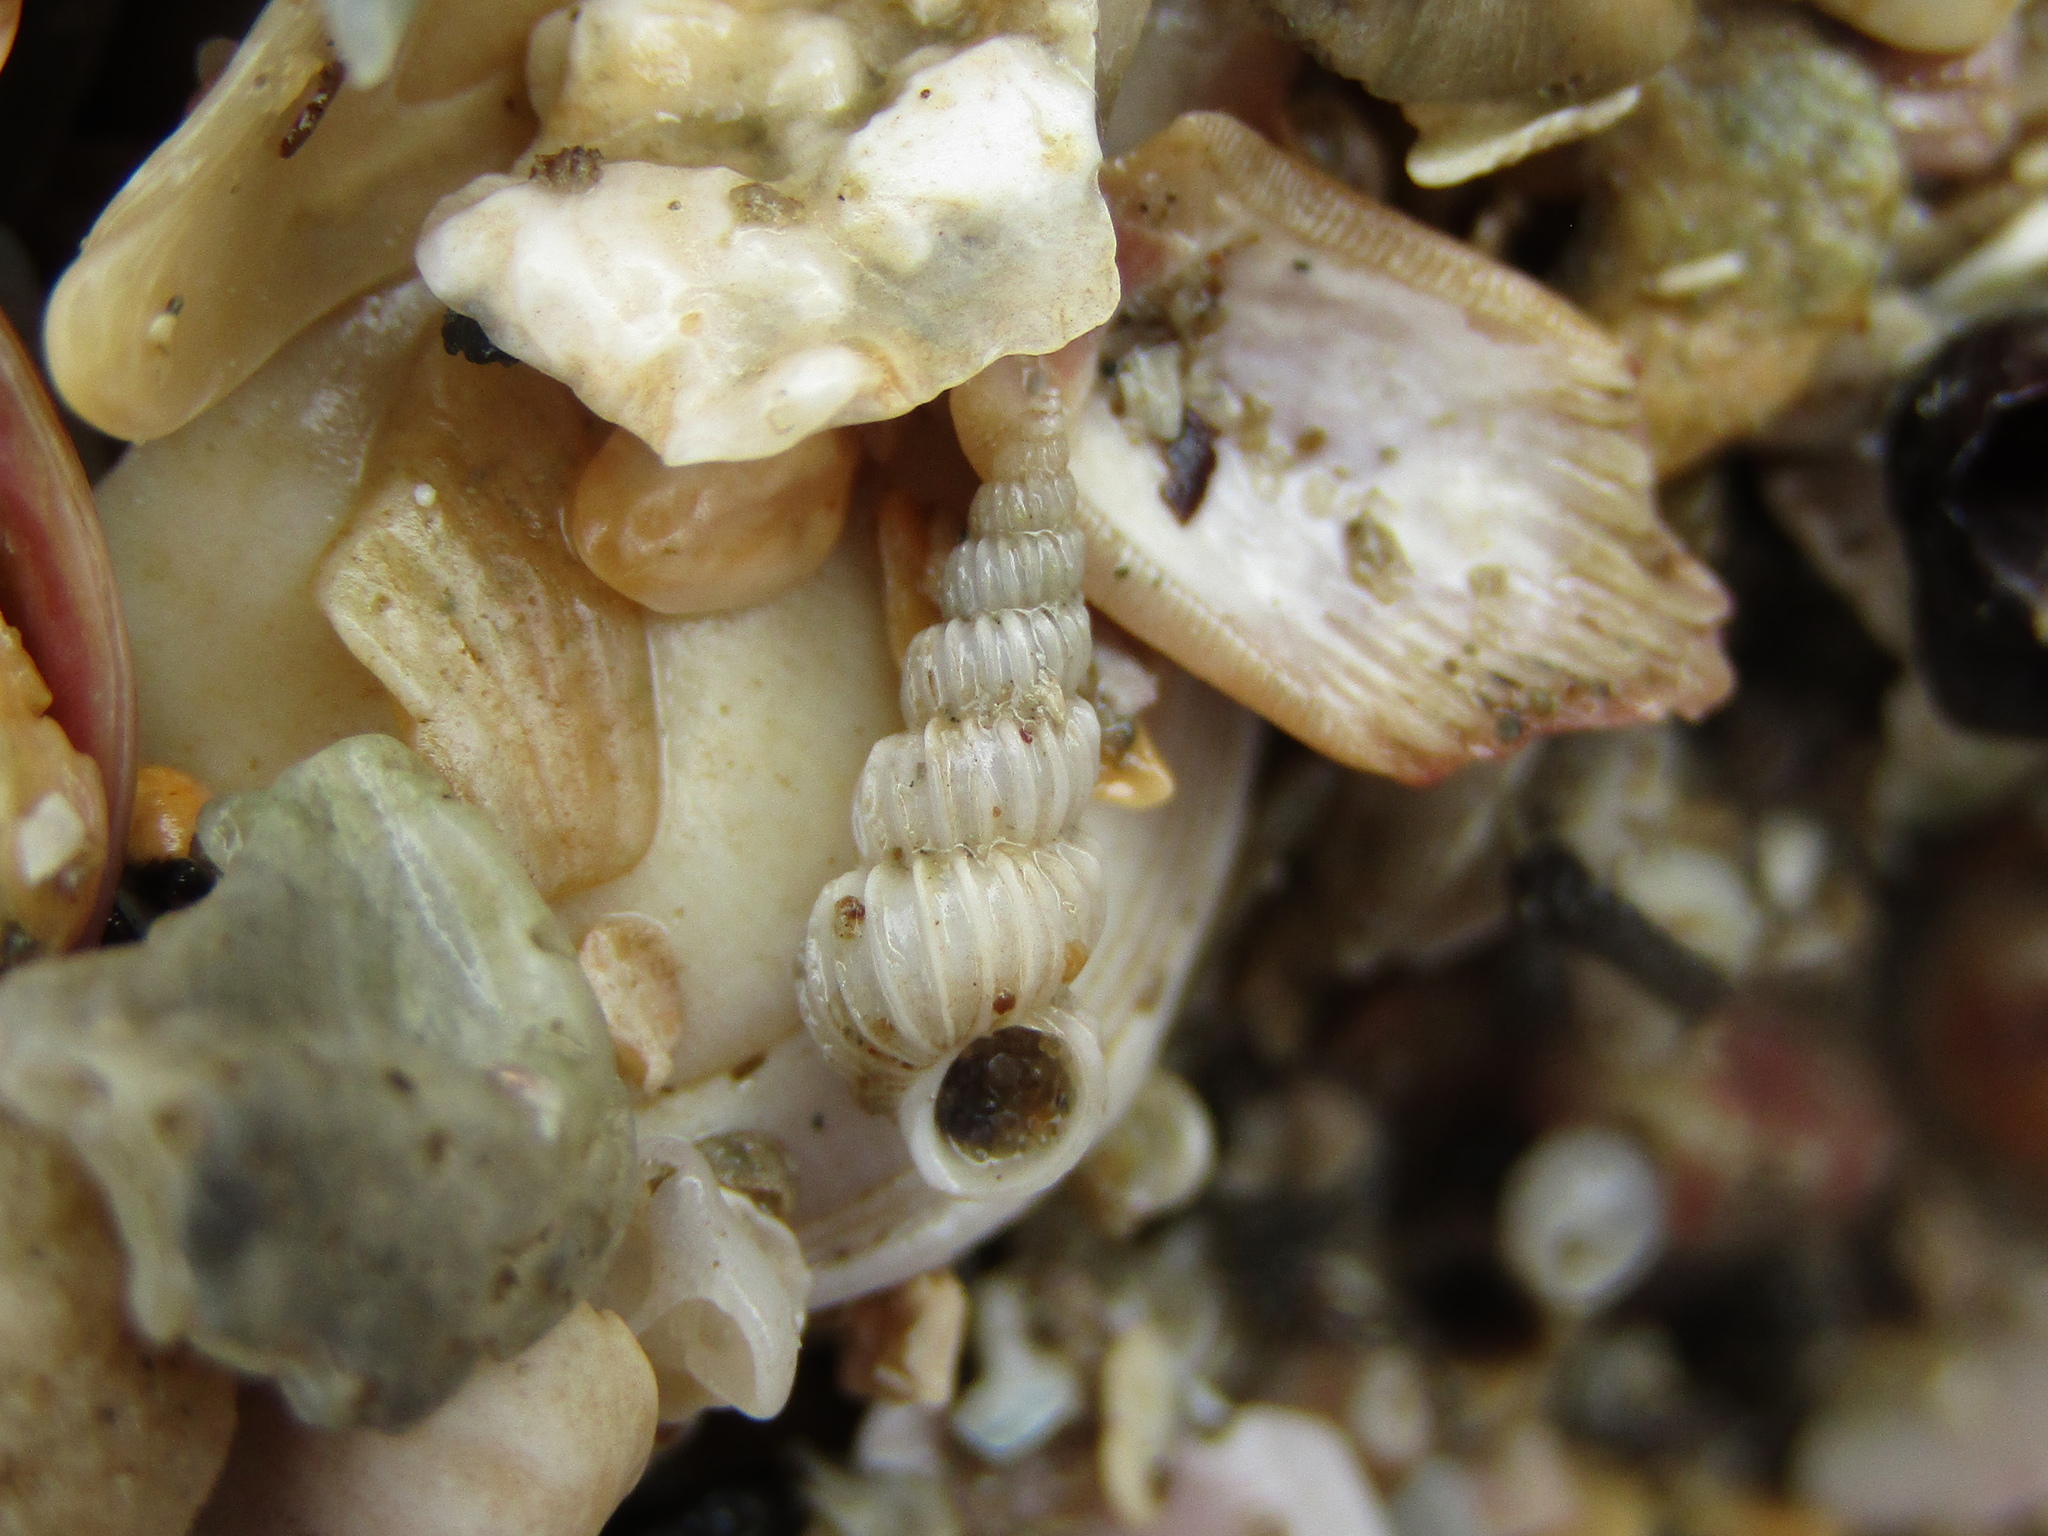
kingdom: Animalia
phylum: Mollusca
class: Gastropoda
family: Epitoniidae
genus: Epitonium
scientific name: Epitonium jukesianum
